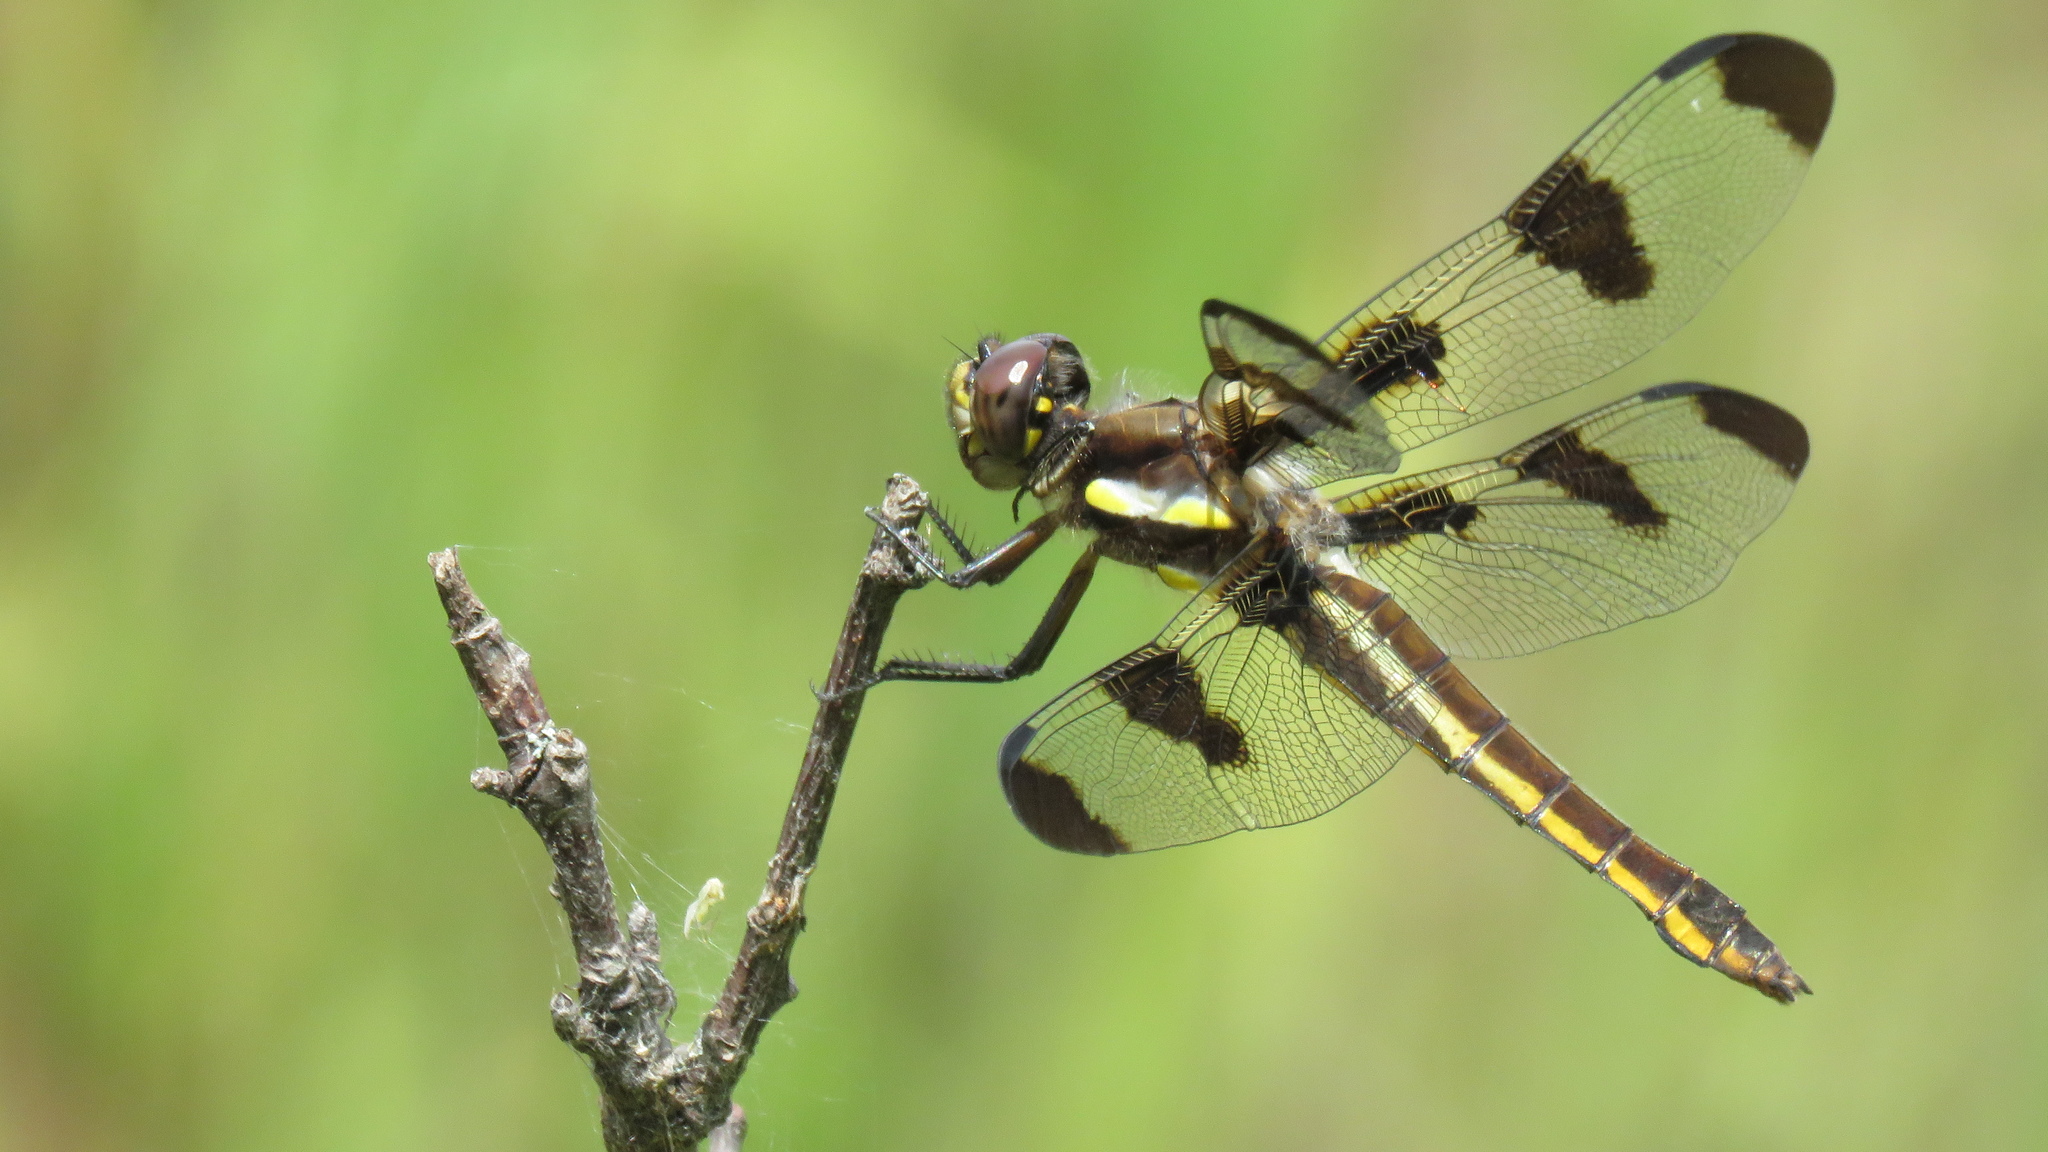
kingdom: Animalia
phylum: Arthropoda
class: Insecta
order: Odonata
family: Libellulidae
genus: Libellula
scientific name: Libellula pulchella
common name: Twelve-spotted skimmer
